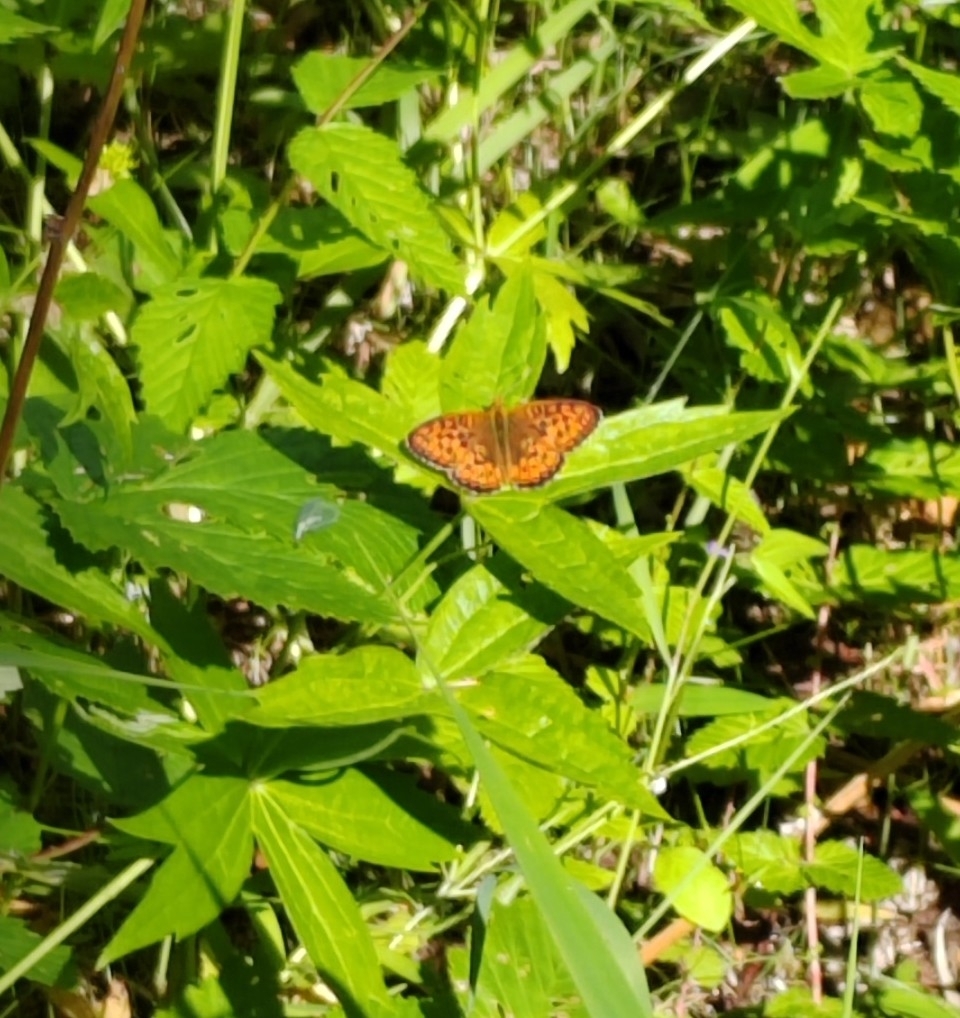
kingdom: Animalia
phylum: Arthropoda
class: Insecta
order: Lepidoptera
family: Nymphalidae
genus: Brenthis
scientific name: Brenthis ino
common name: Lesser marbled fritillary
